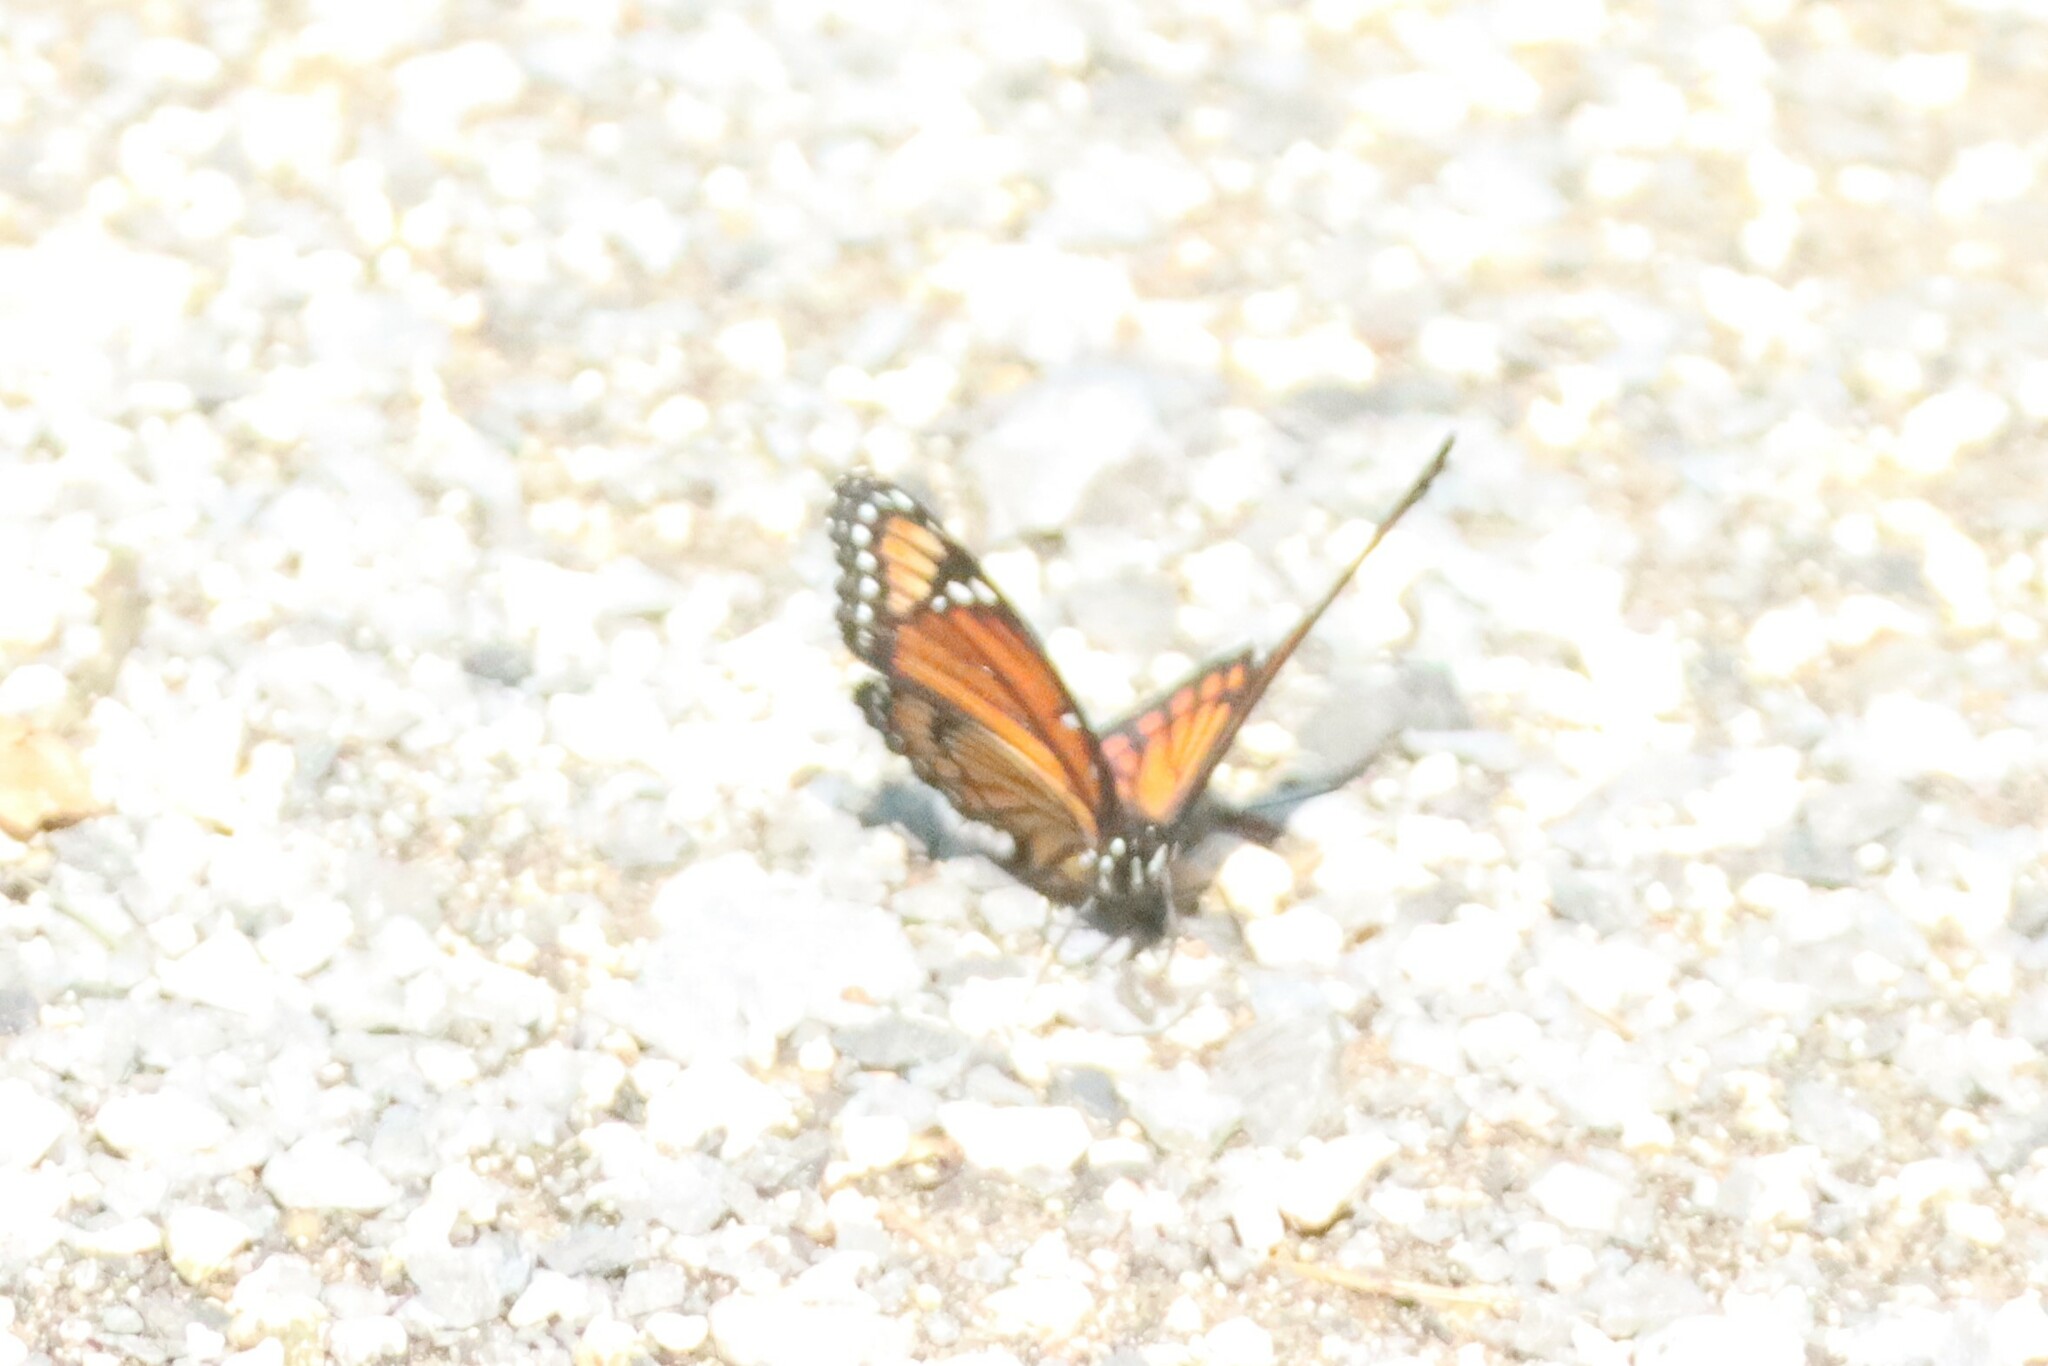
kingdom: Animalia
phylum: Arthropoda
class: Insecta
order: Lepidoptera
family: Nymphalidae
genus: Limenitis
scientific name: Limenitis archippus
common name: Viceroy
